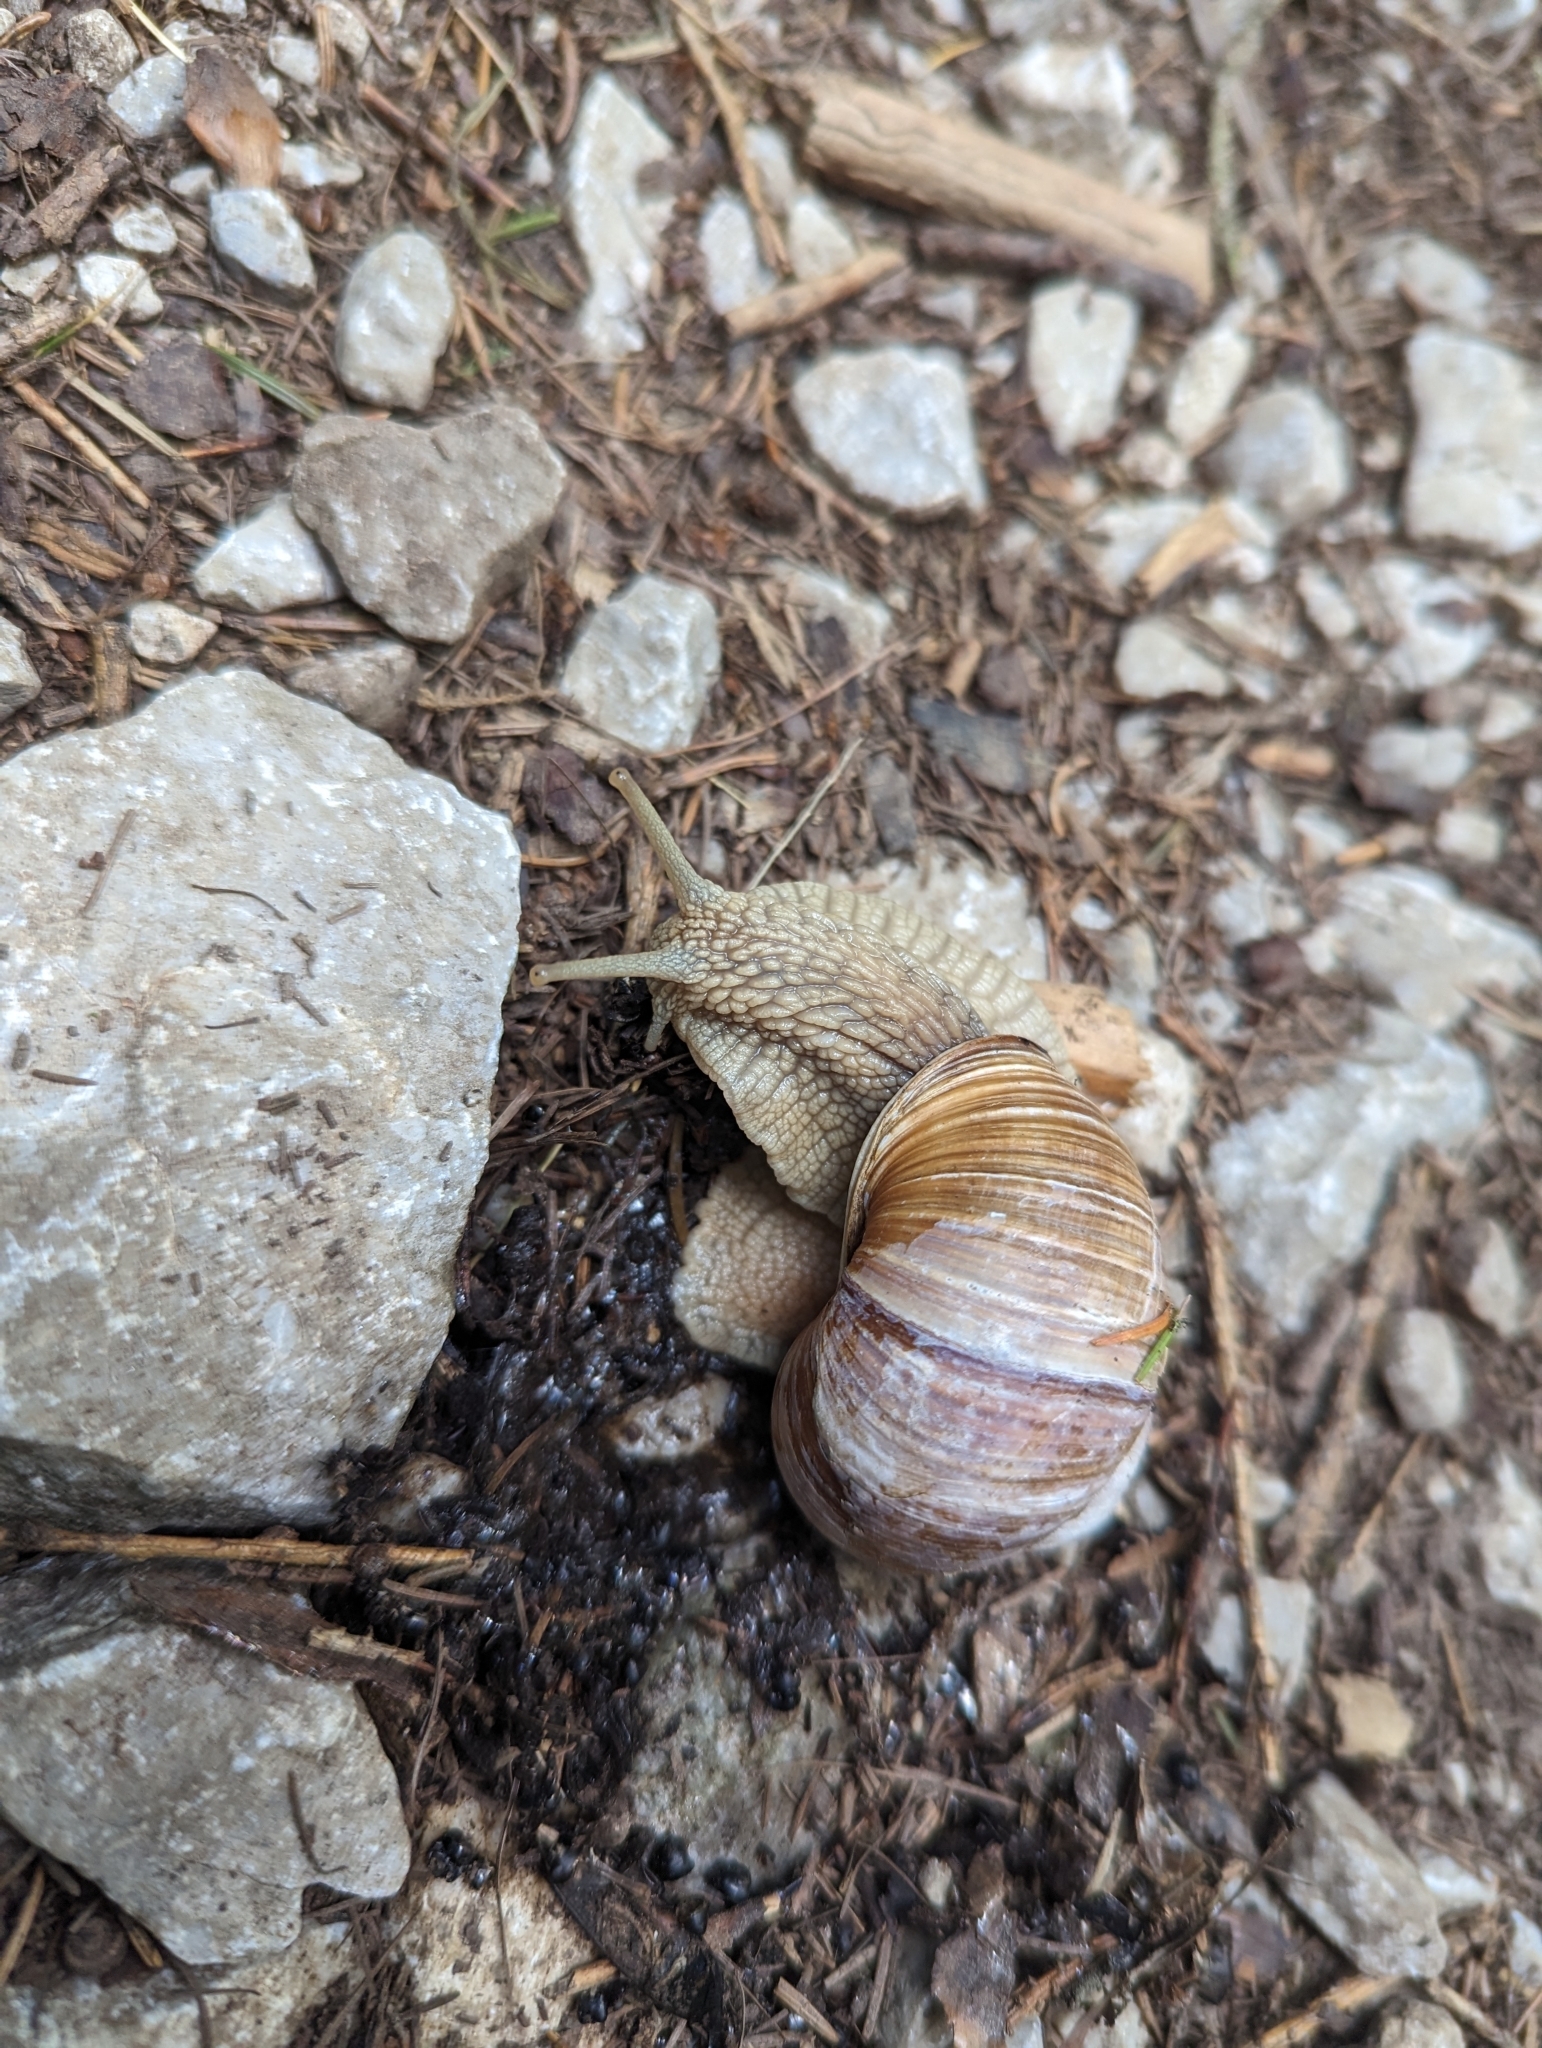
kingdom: Animalia
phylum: Mollusca
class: Gastropoda
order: Stylommatophora
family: Helicidae
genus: Helix
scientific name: Helix pomatia
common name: Roman snail
